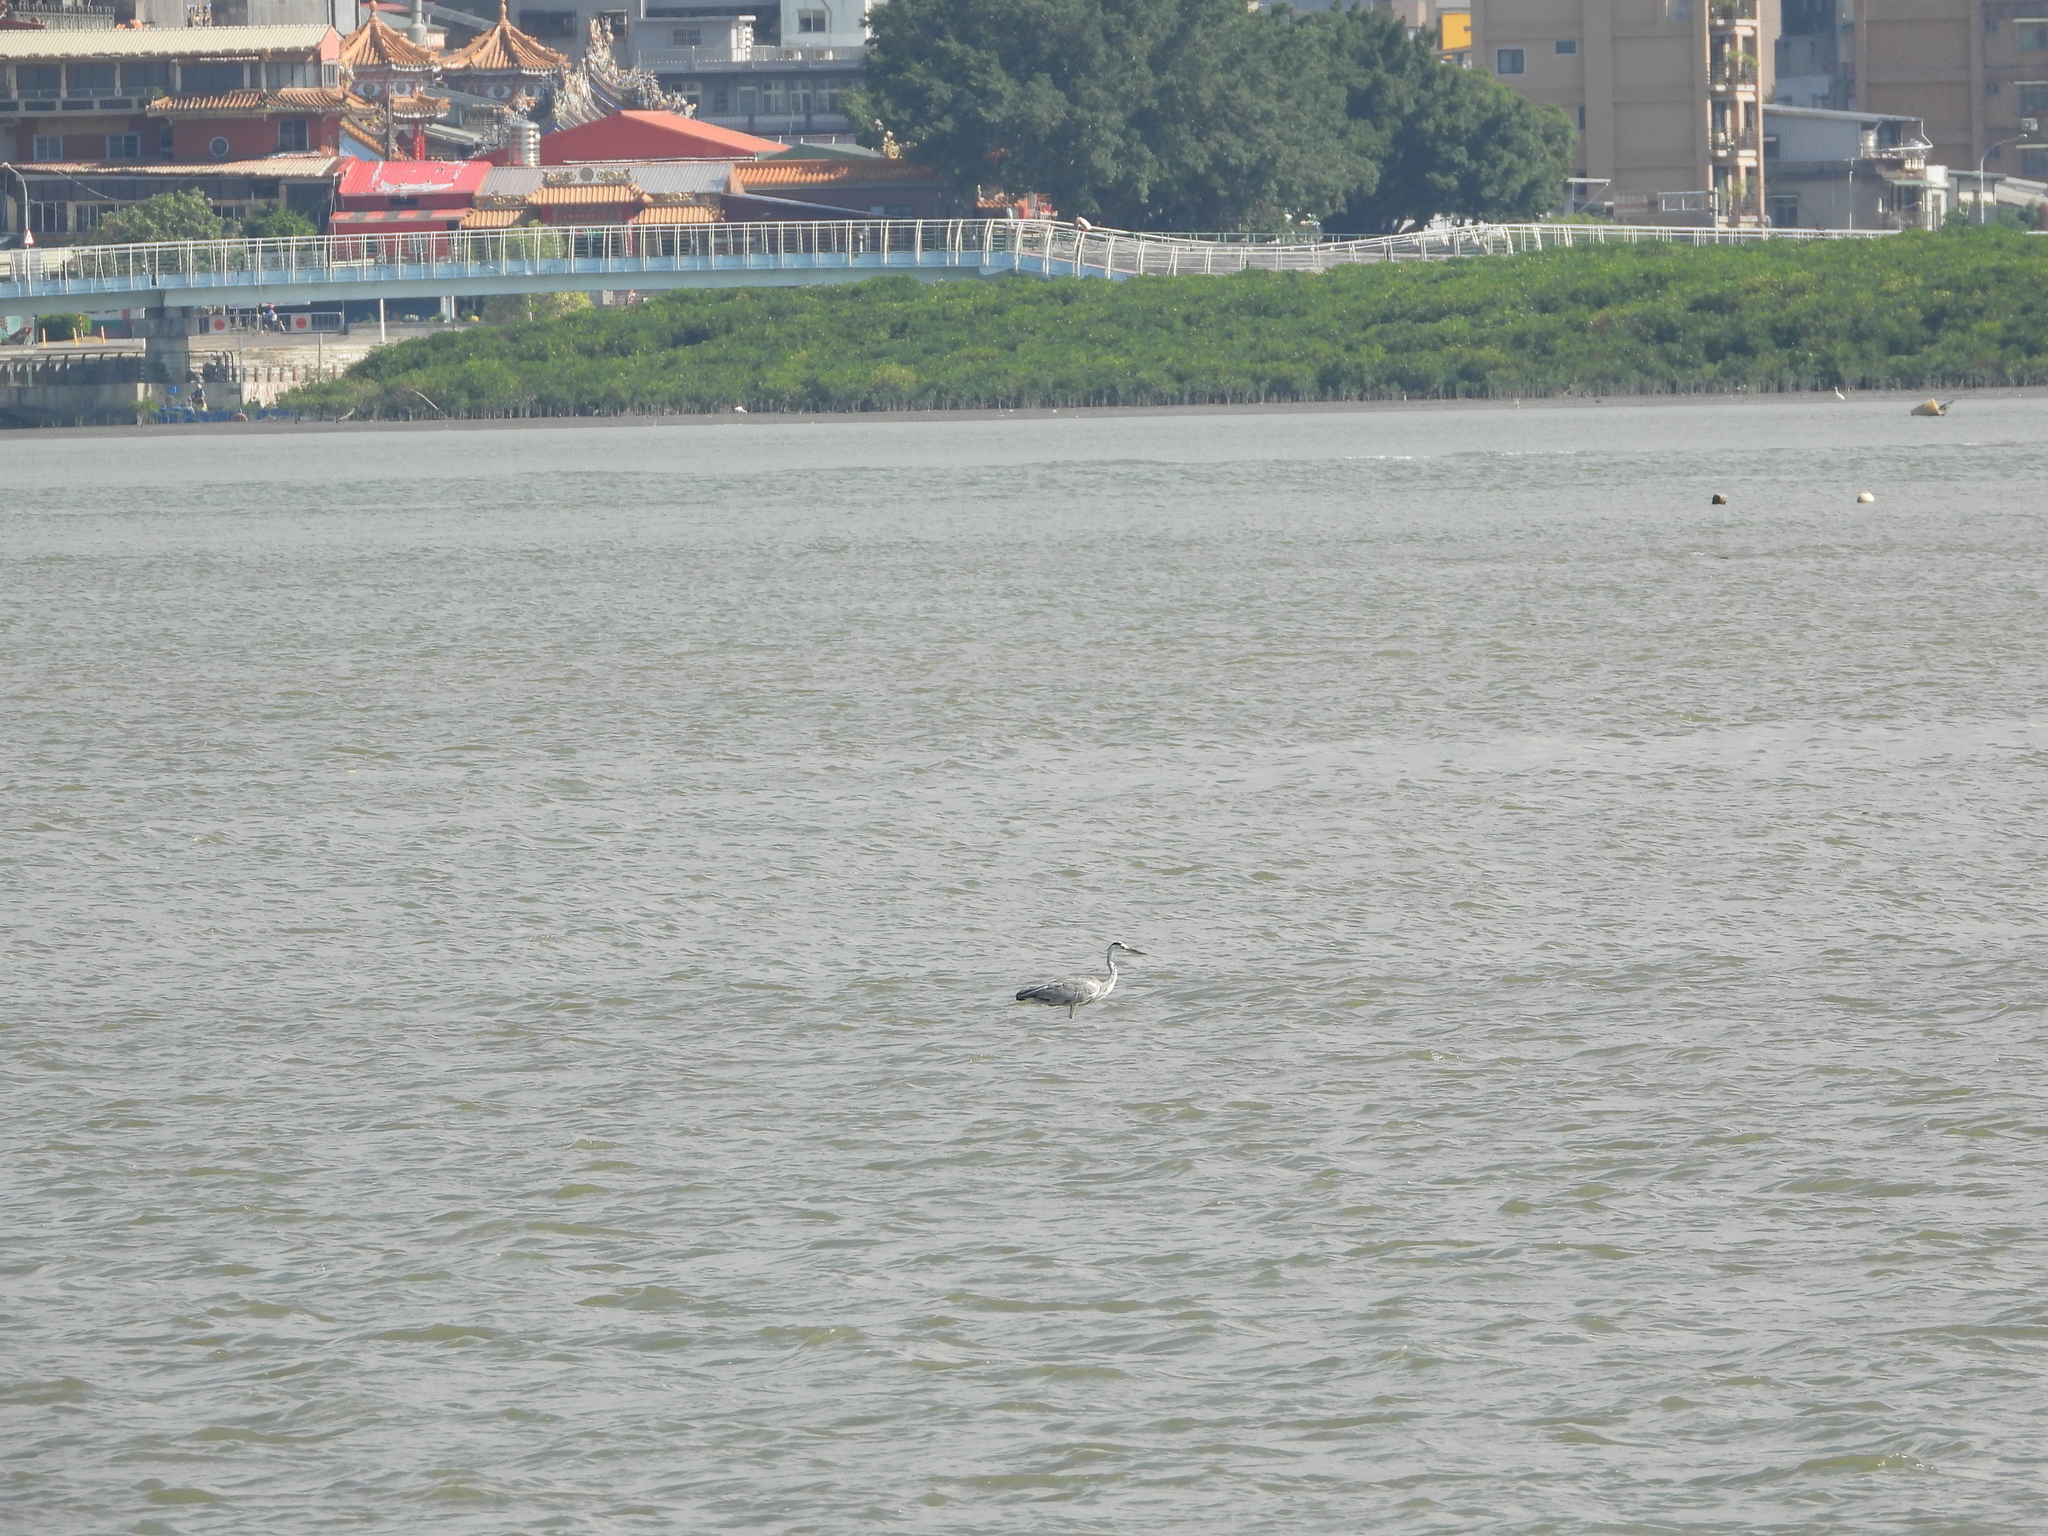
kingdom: Animalia
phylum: Chordata
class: Aves
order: Pelecaniformes
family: Ardeidae
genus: Ardea
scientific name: Ardea cinerea
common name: Grey heron
